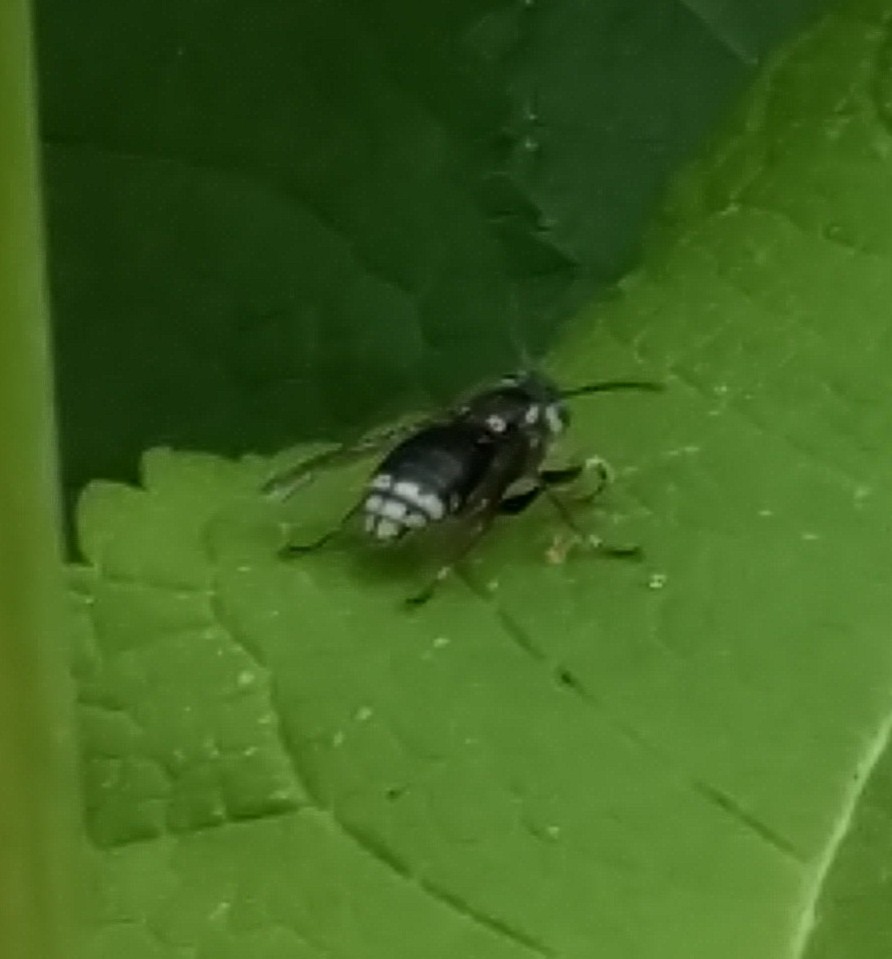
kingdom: Animalia
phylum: Arthropoda
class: Insecta
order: Hymenoptera
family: Vespidae
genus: Dolichovespula
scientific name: Dolichovespula maculata
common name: Bald-faced hornet
